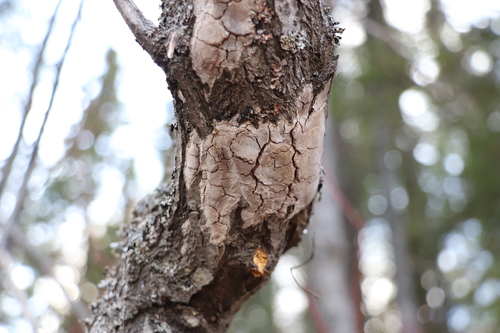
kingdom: Fungi
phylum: Basidiomycota
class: Agaricomycetes
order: Hymenochaetales
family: Hymenochaetaceae
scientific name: Hymenochaetaceae
